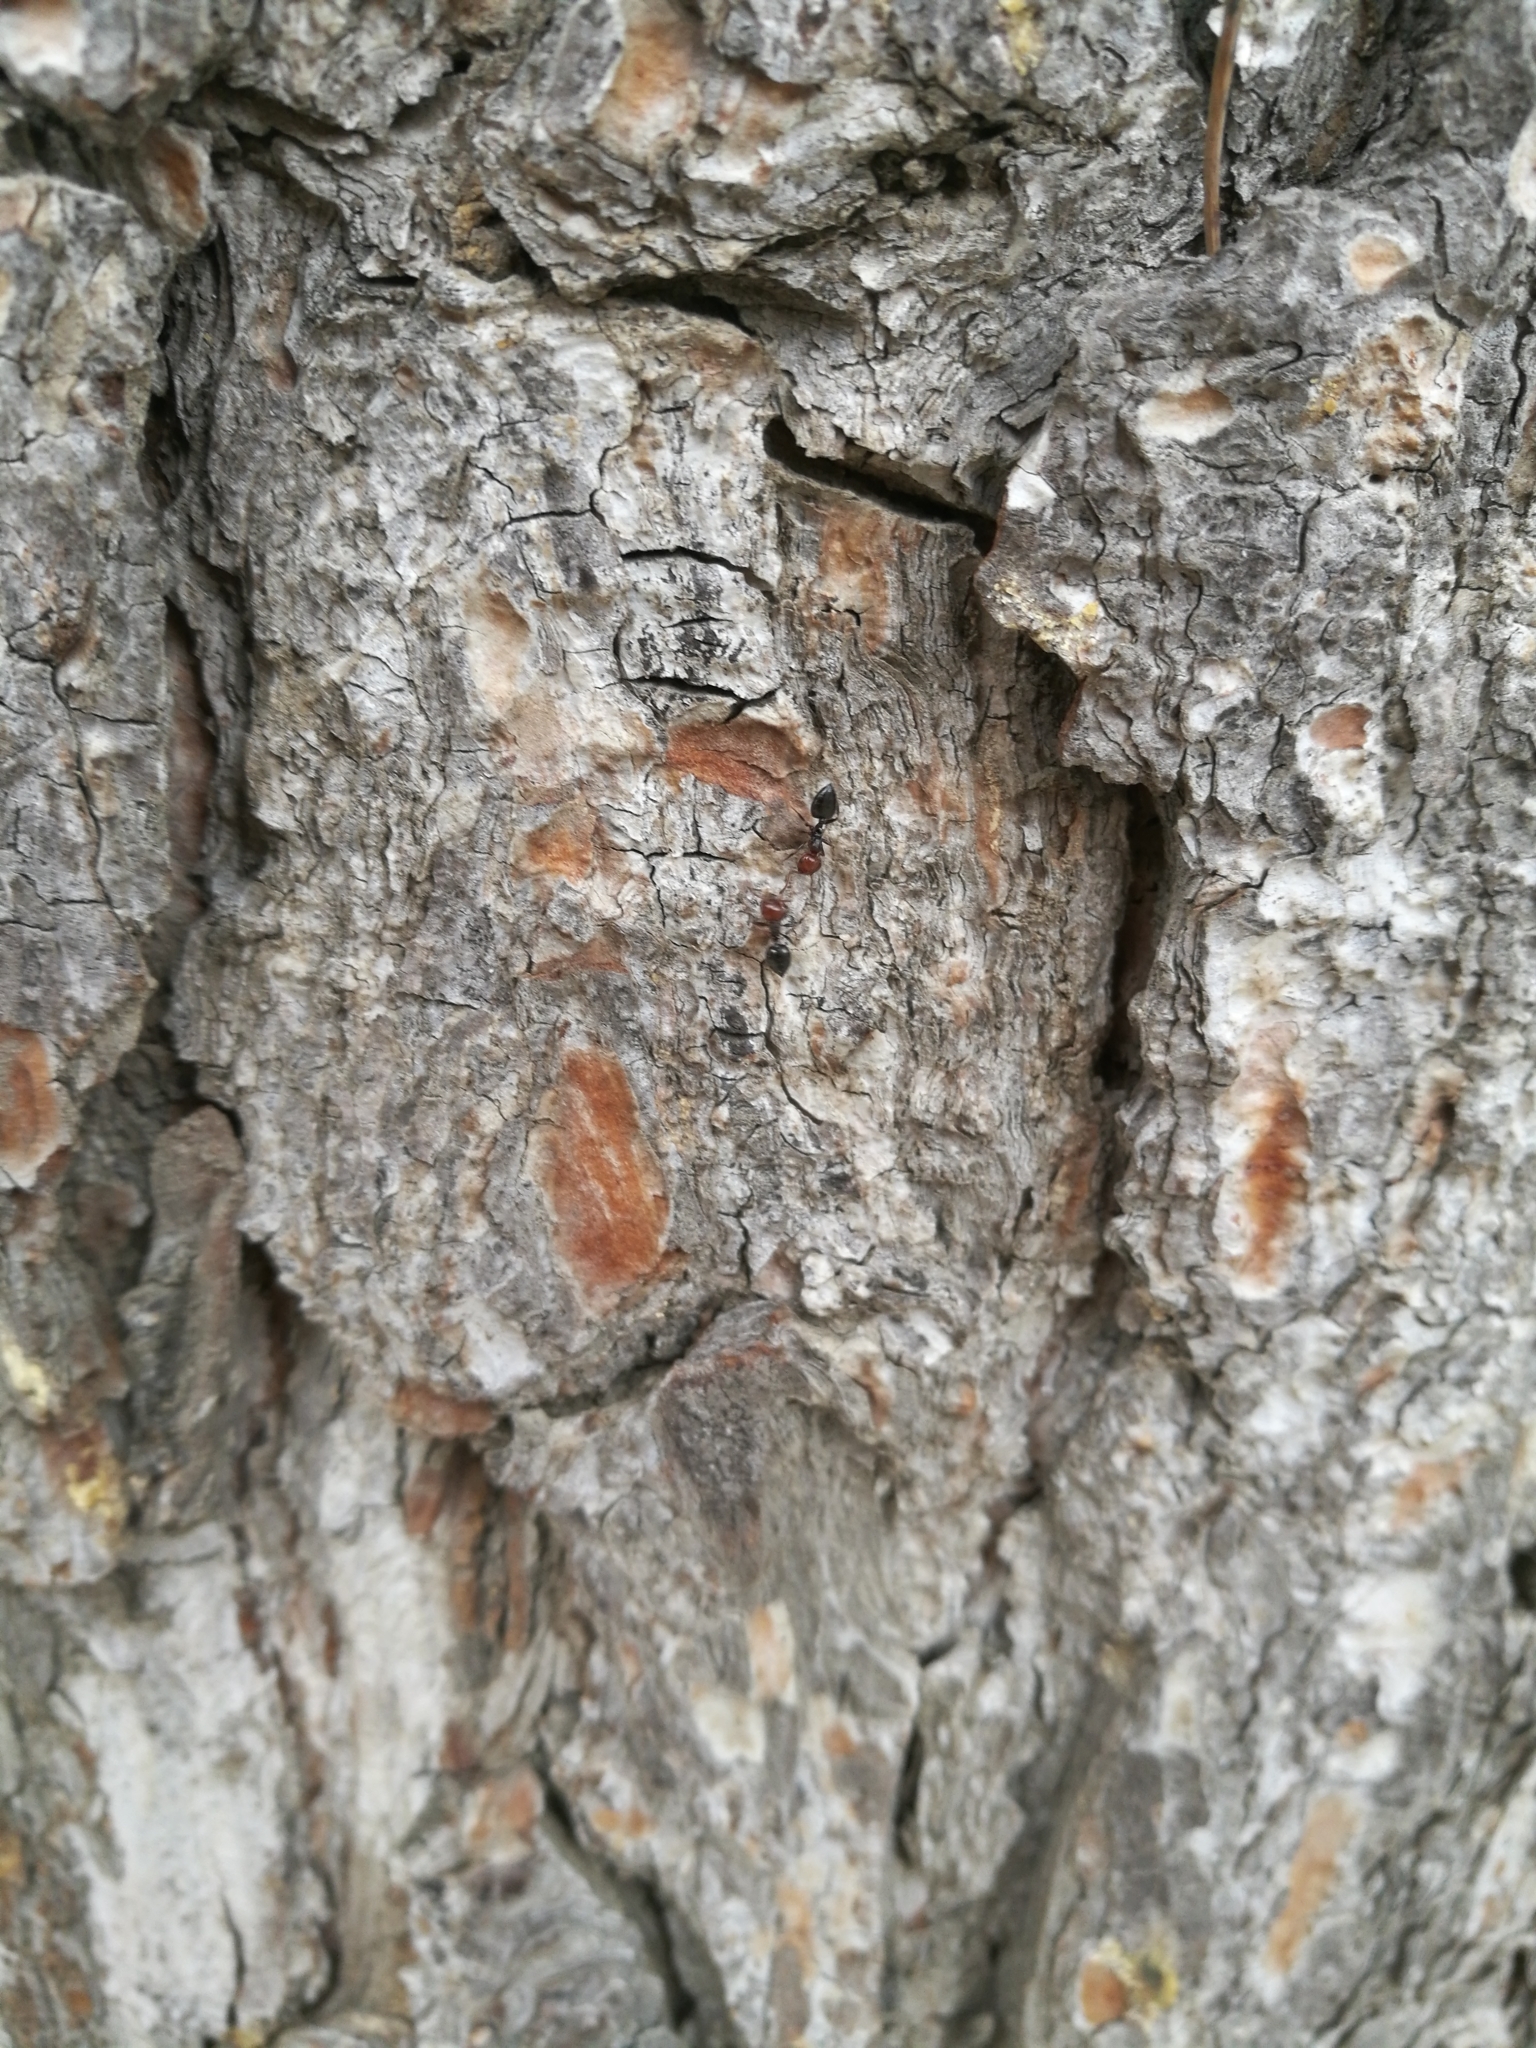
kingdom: Animalia
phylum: Arthropoda
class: Insecta
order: Hymenoptera
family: Formicidae
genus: Crematogaster
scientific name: Crematogaster scutellaris
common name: Fourmi du liège
